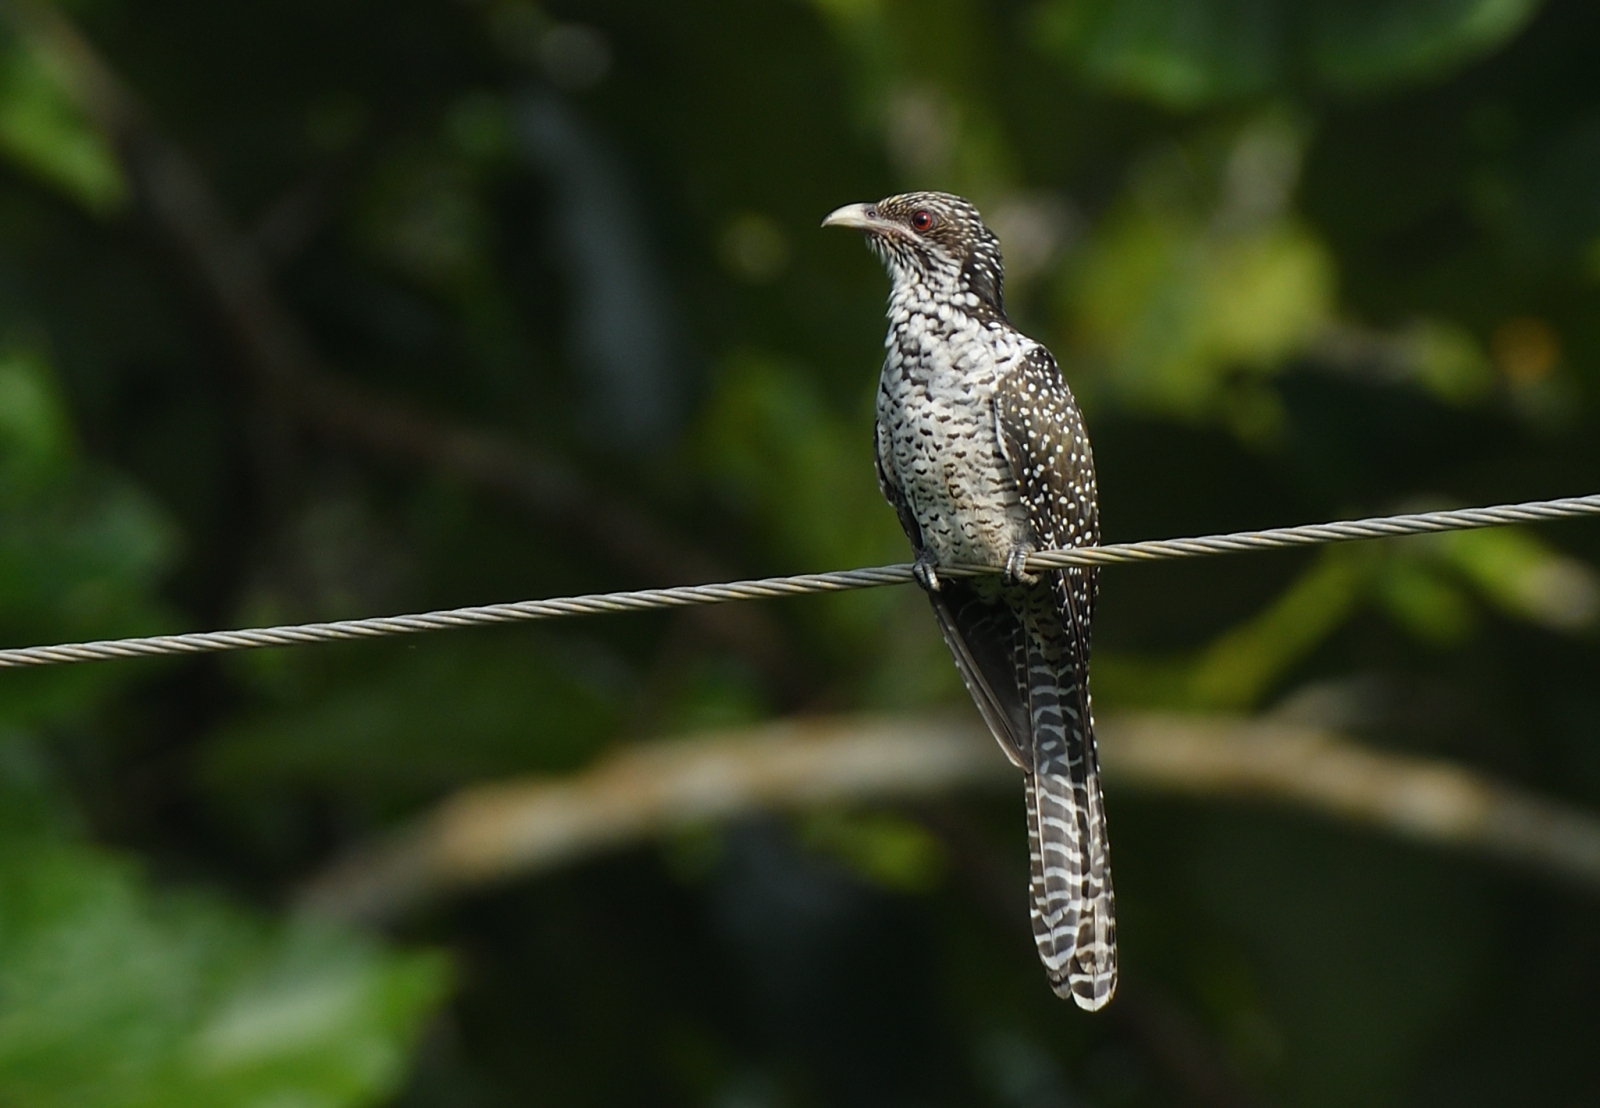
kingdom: Animalia
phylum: Chordata
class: Aves
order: Cuculiformes
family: Cuculidae
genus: Eudynamys
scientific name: Eudynamys scolopaceus
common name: Asian koel
